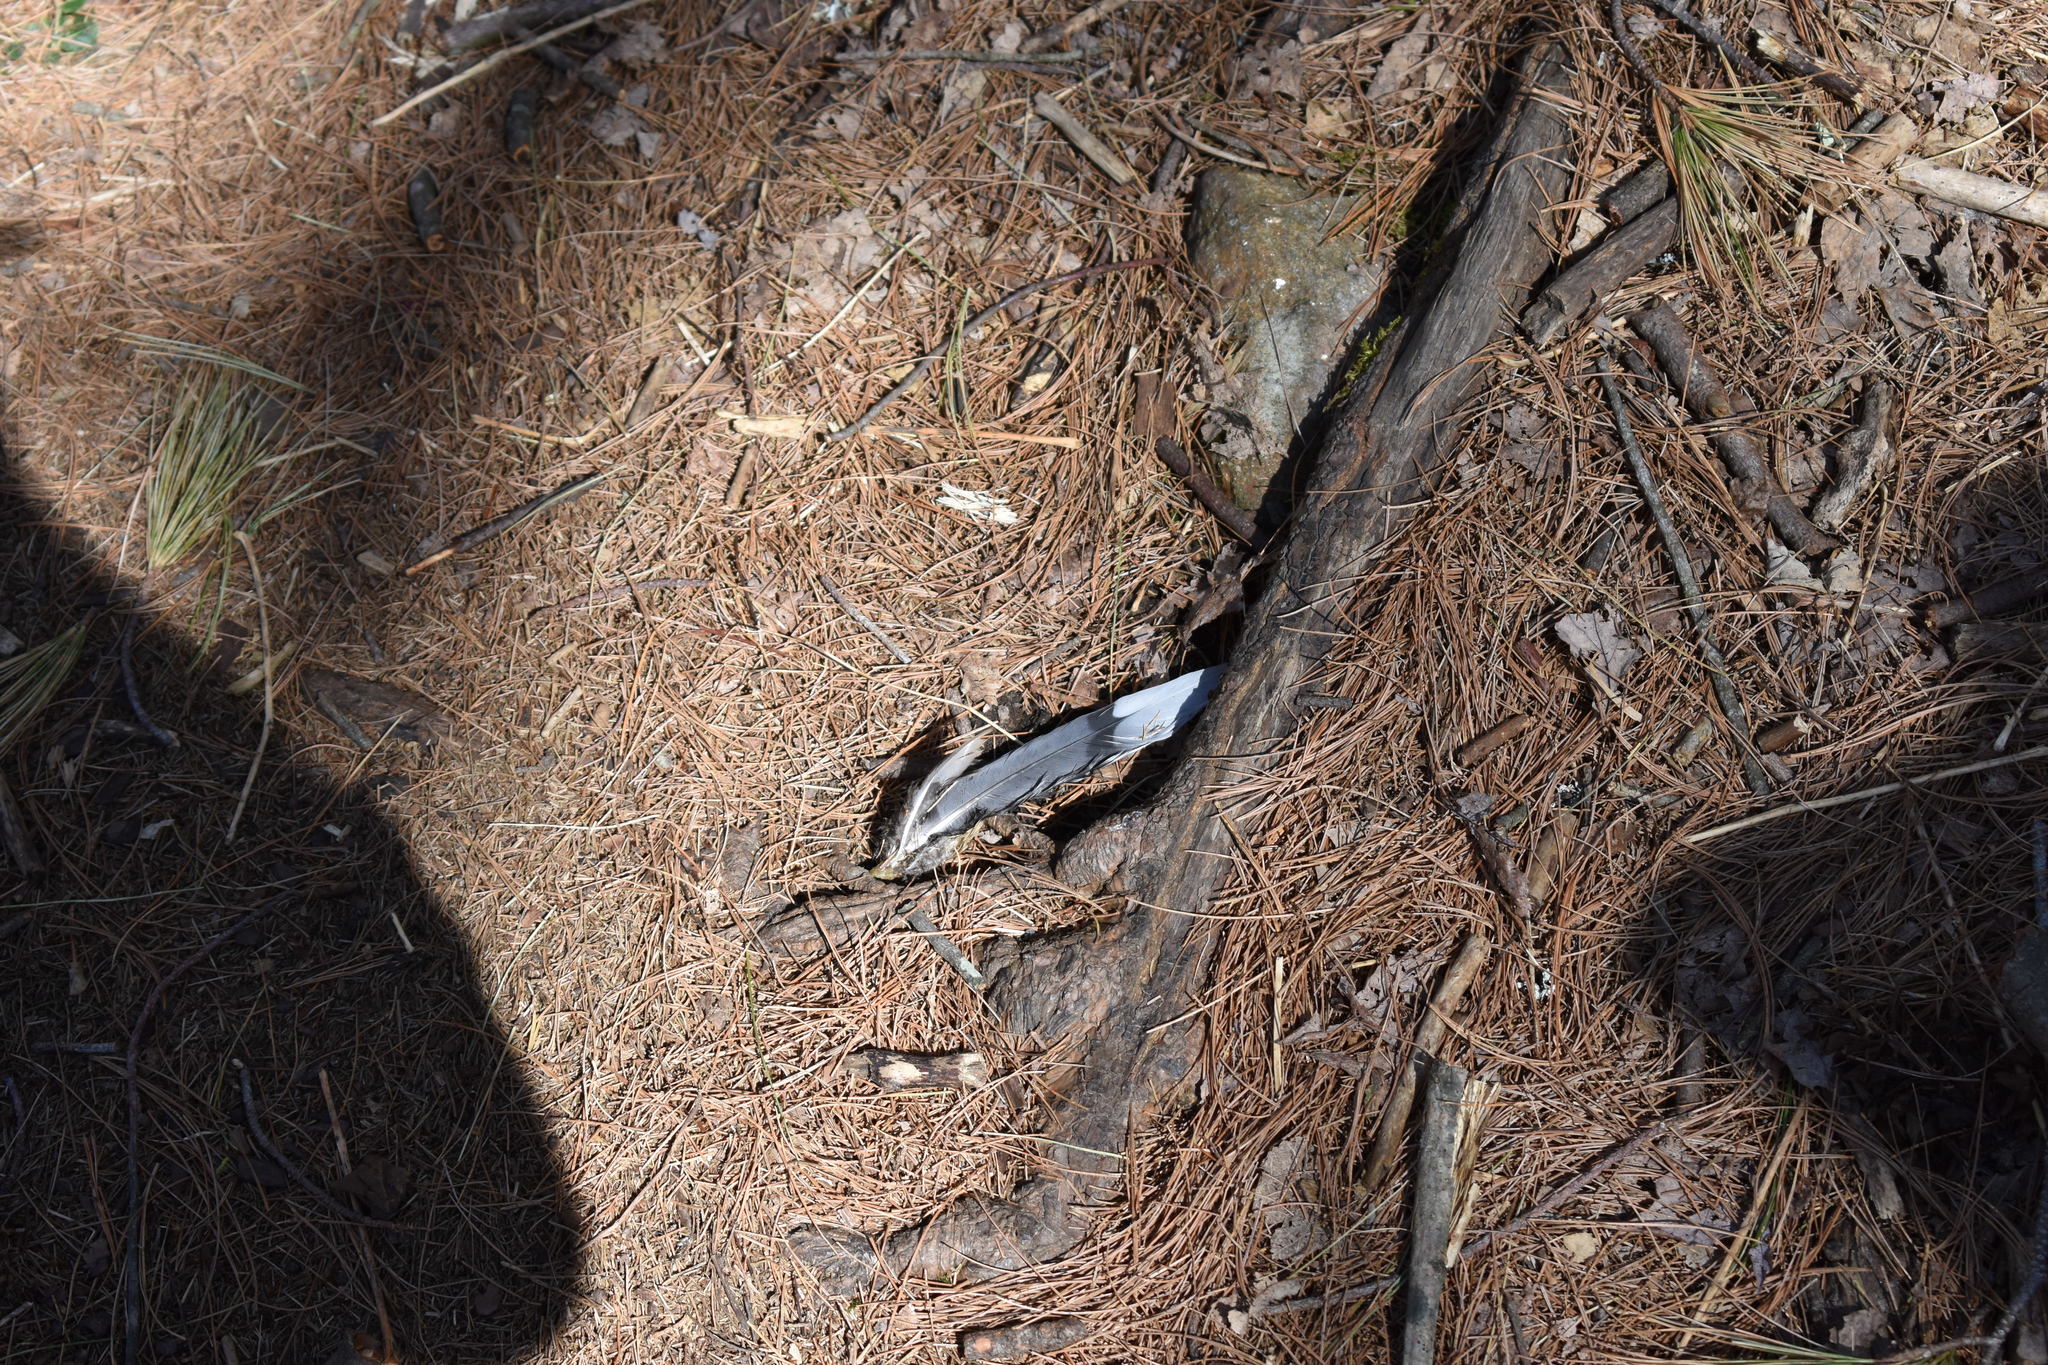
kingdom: Animalia
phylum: Chordata
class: Aves
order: Columbiformes
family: Columbidae
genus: Zenaida
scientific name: Zenaida macroura
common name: Mourning dove
